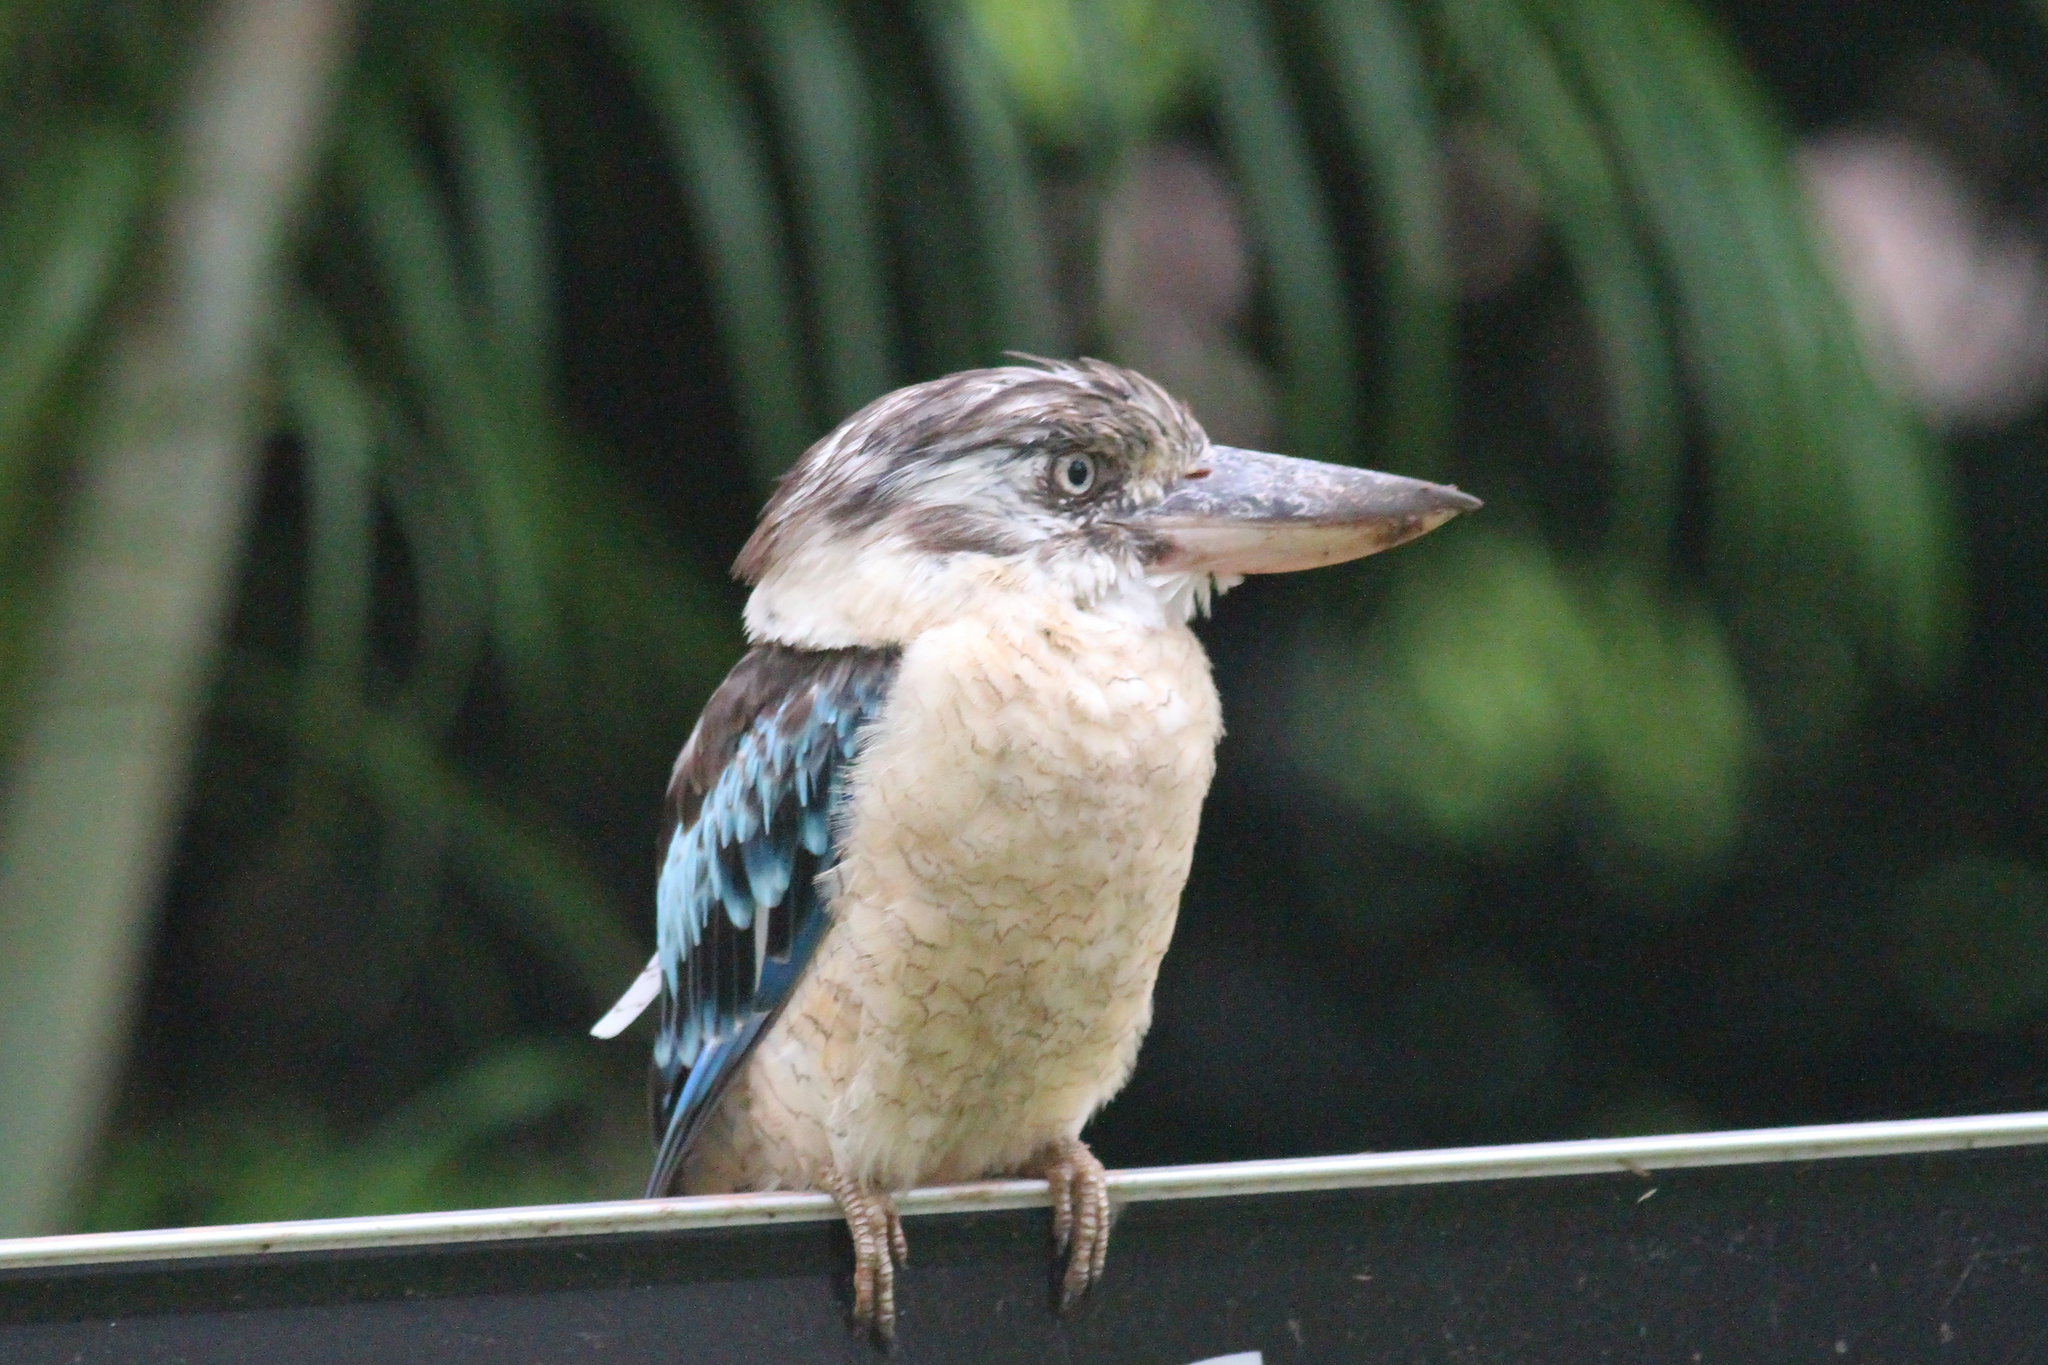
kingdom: Animalia
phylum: Chordata
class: Aves
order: Coraciiformes
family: Alcedinidae
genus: Dacelo
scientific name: Dacelo leachii
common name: Blue-winged kookaburra
